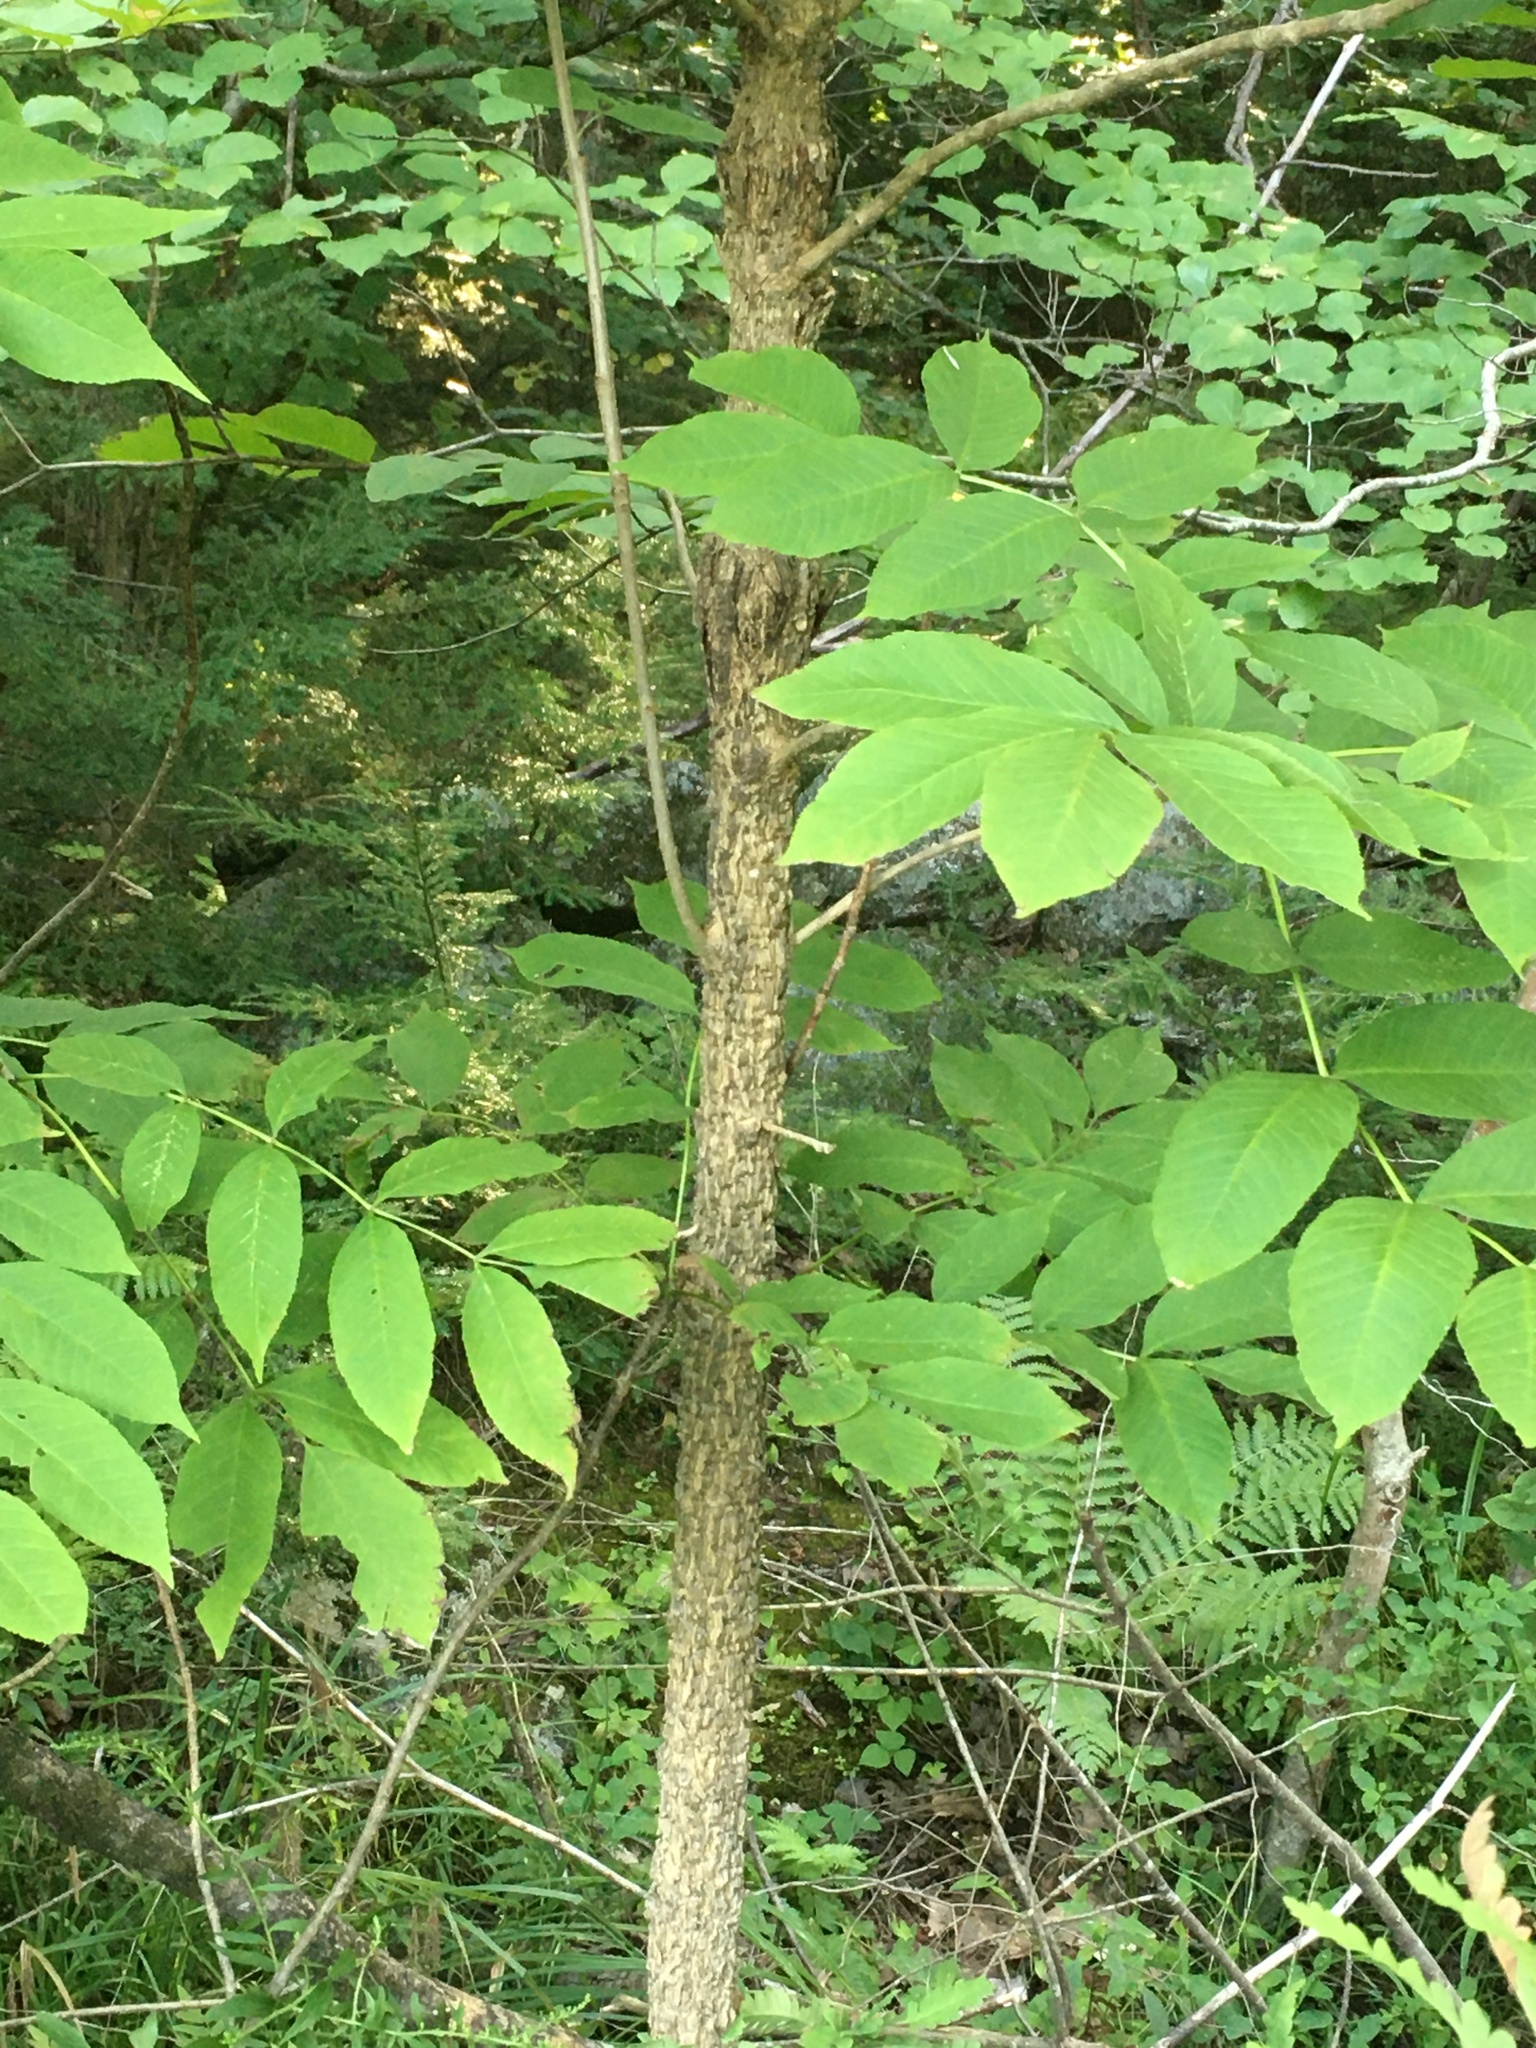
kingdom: Plantae
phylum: Tracheophyta
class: Magnoliopsida
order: Lamiales
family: Oleaceae
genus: Fraxinus
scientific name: Fraxinus nigra
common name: Black ash
